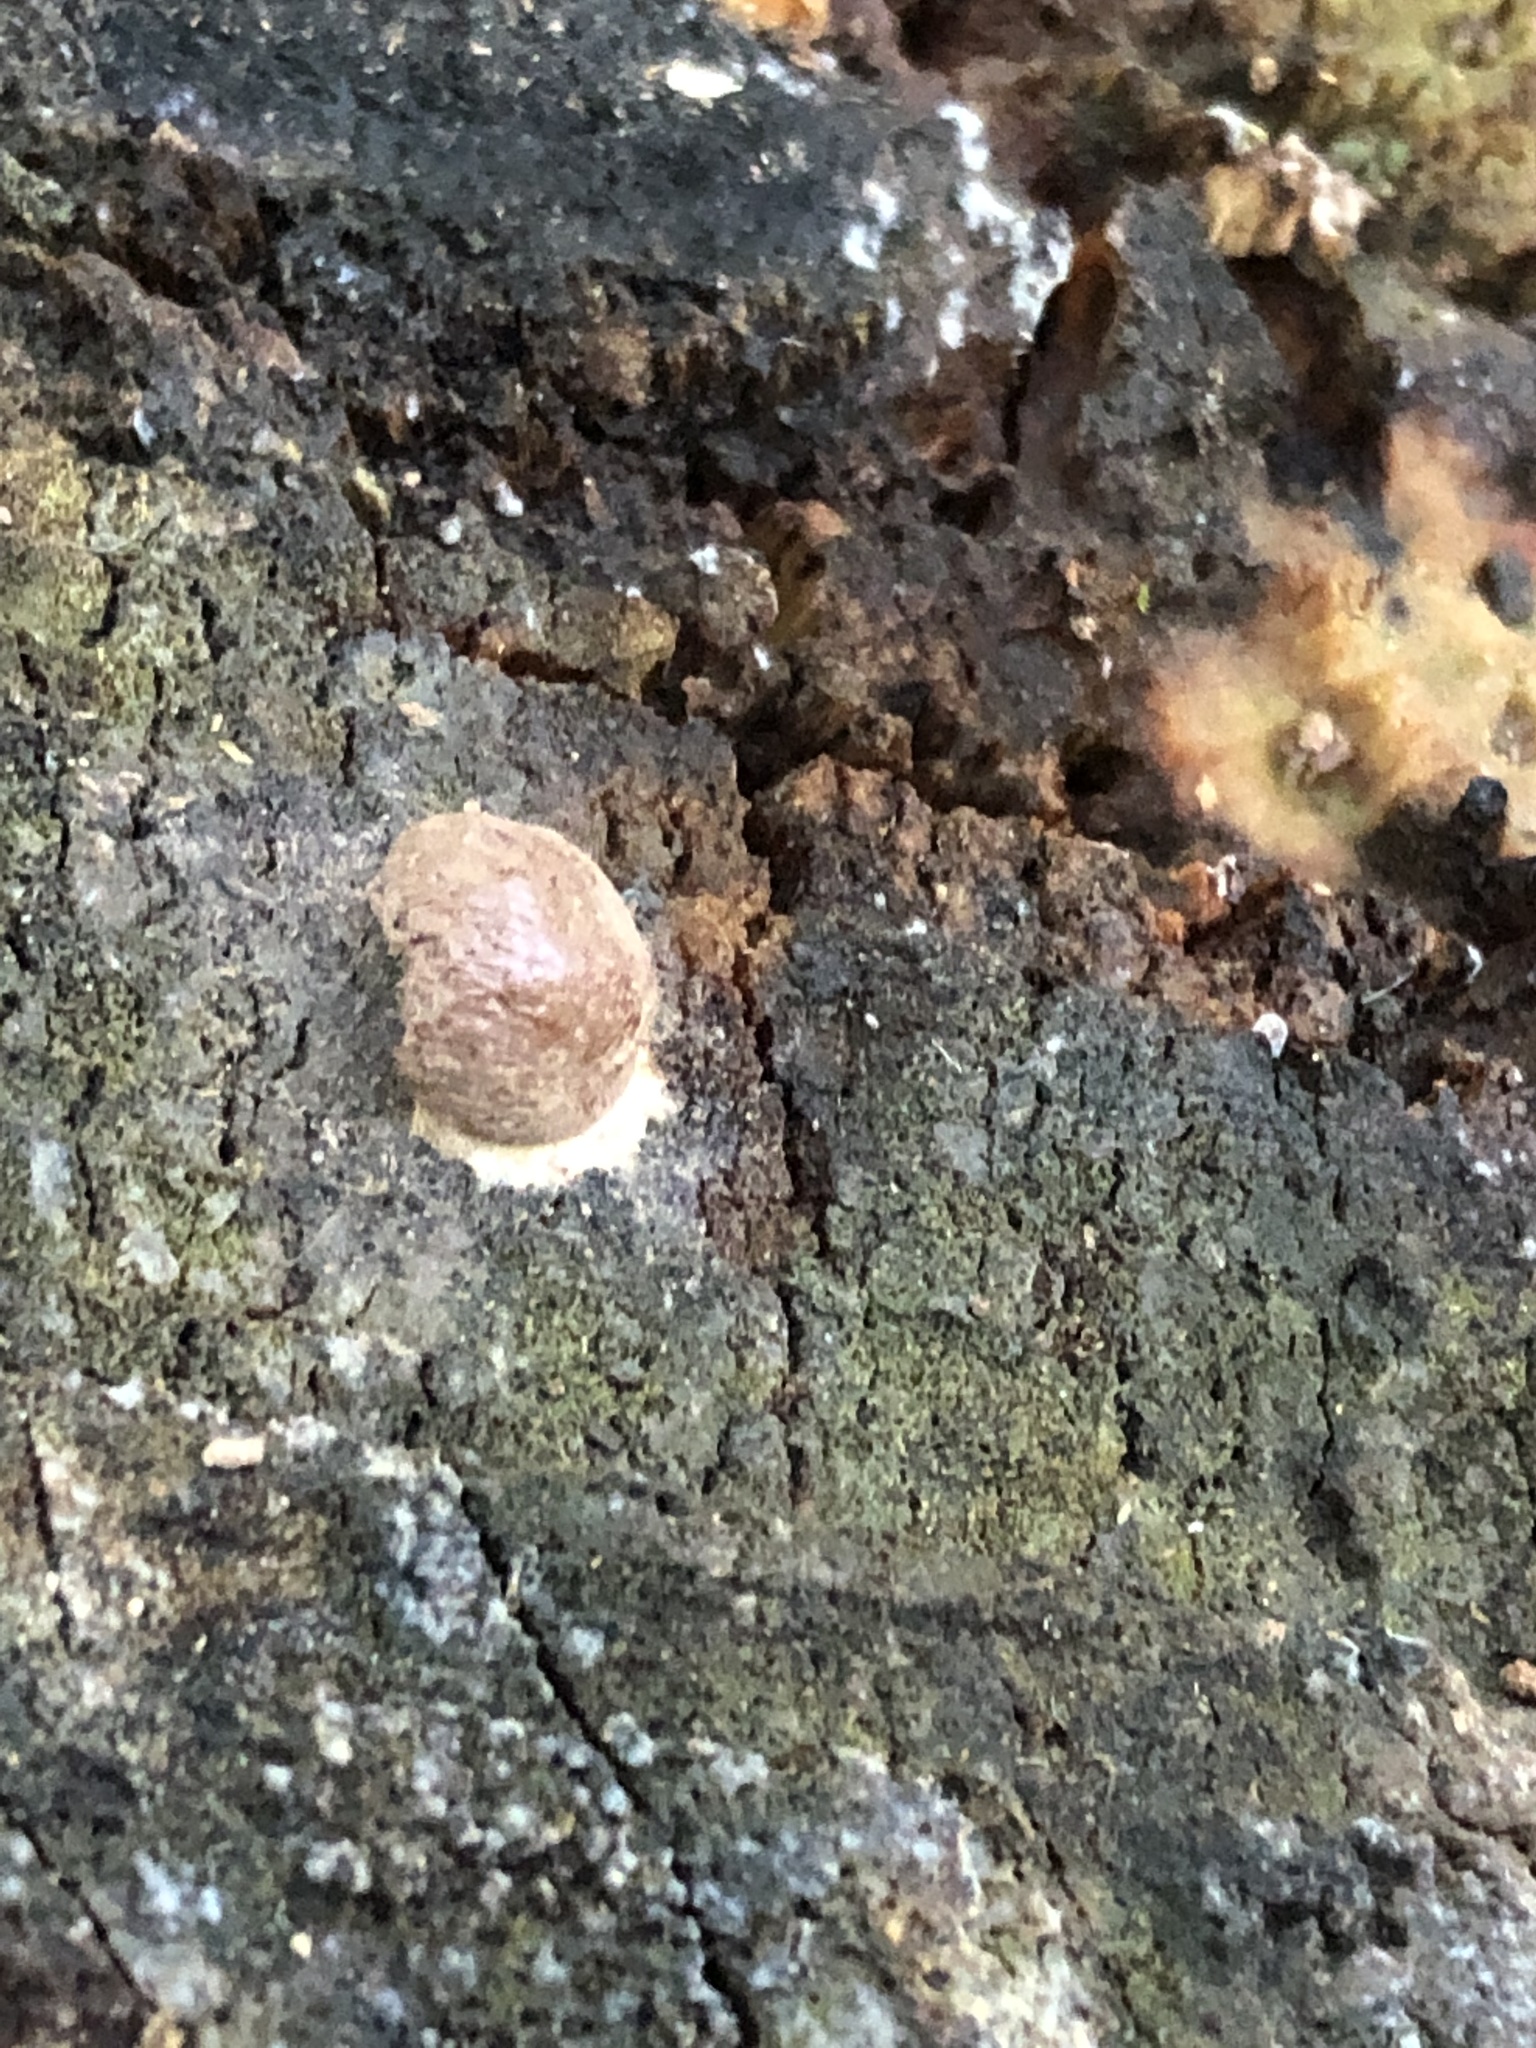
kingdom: Protozoa
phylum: Mycetozoa
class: Myxomycetes
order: Cribrariales
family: Tubiferaceae
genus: Reticularia
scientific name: Reticularia lycoperdon
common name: False puffball
